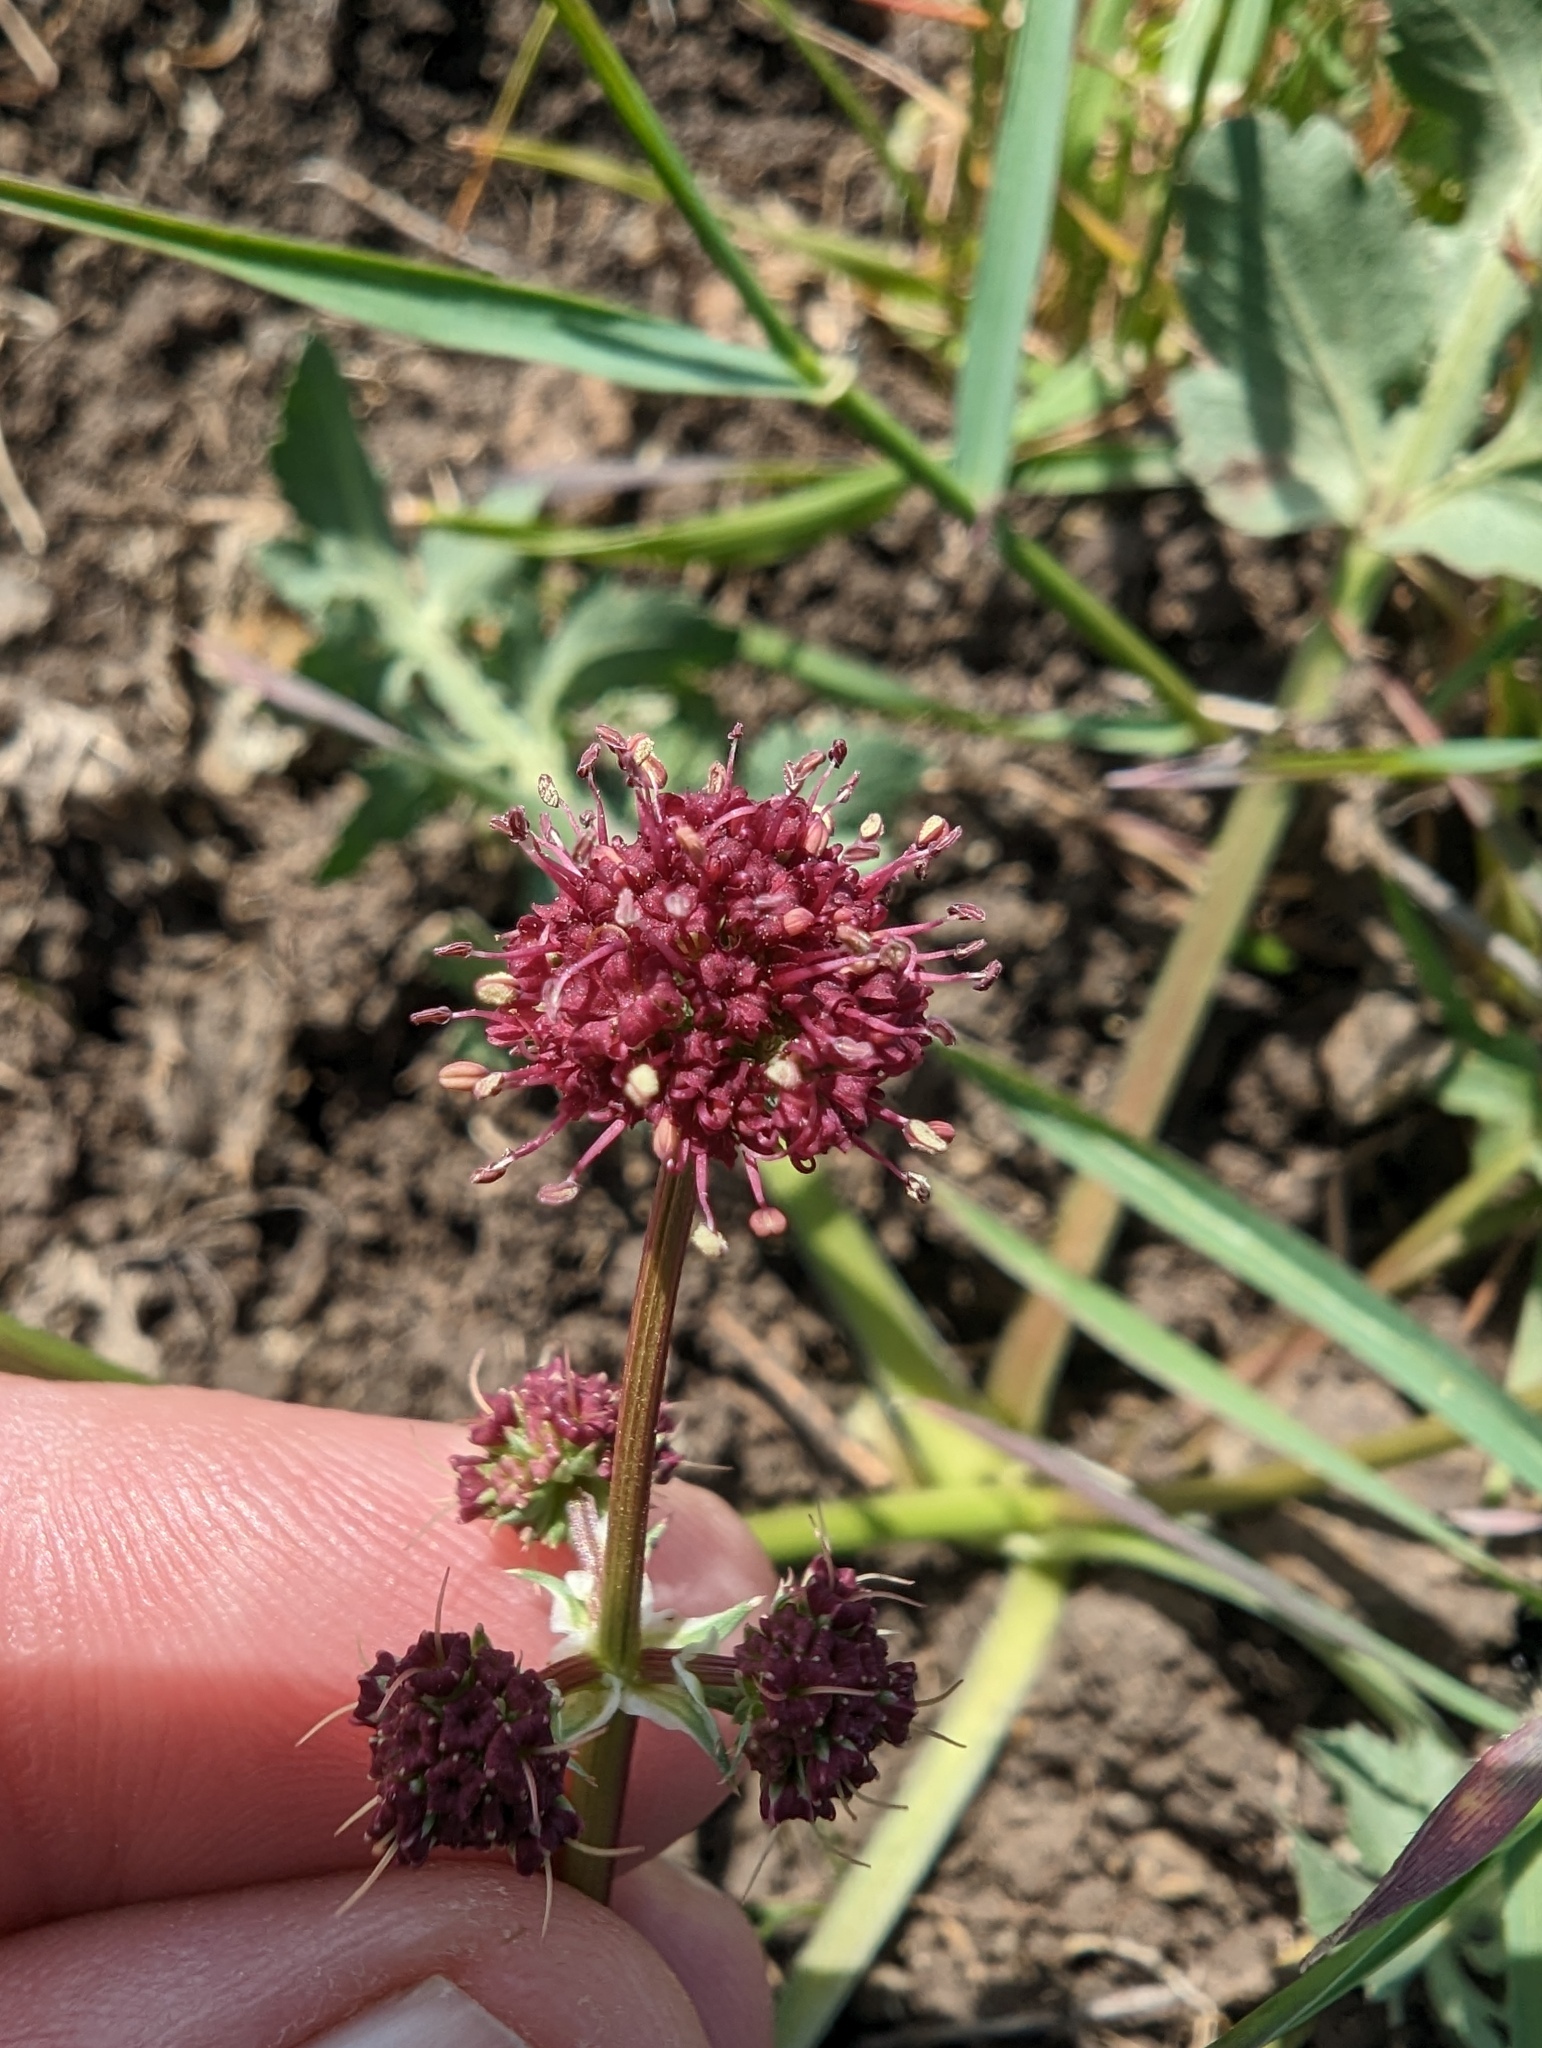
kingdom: Plantae
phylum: Tracheophyta
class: Magnoliopsida
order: Apiales
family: Apiaceae
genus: Sanicula
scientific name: Sanicula bipinnatifida
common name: Shoe-buttons
